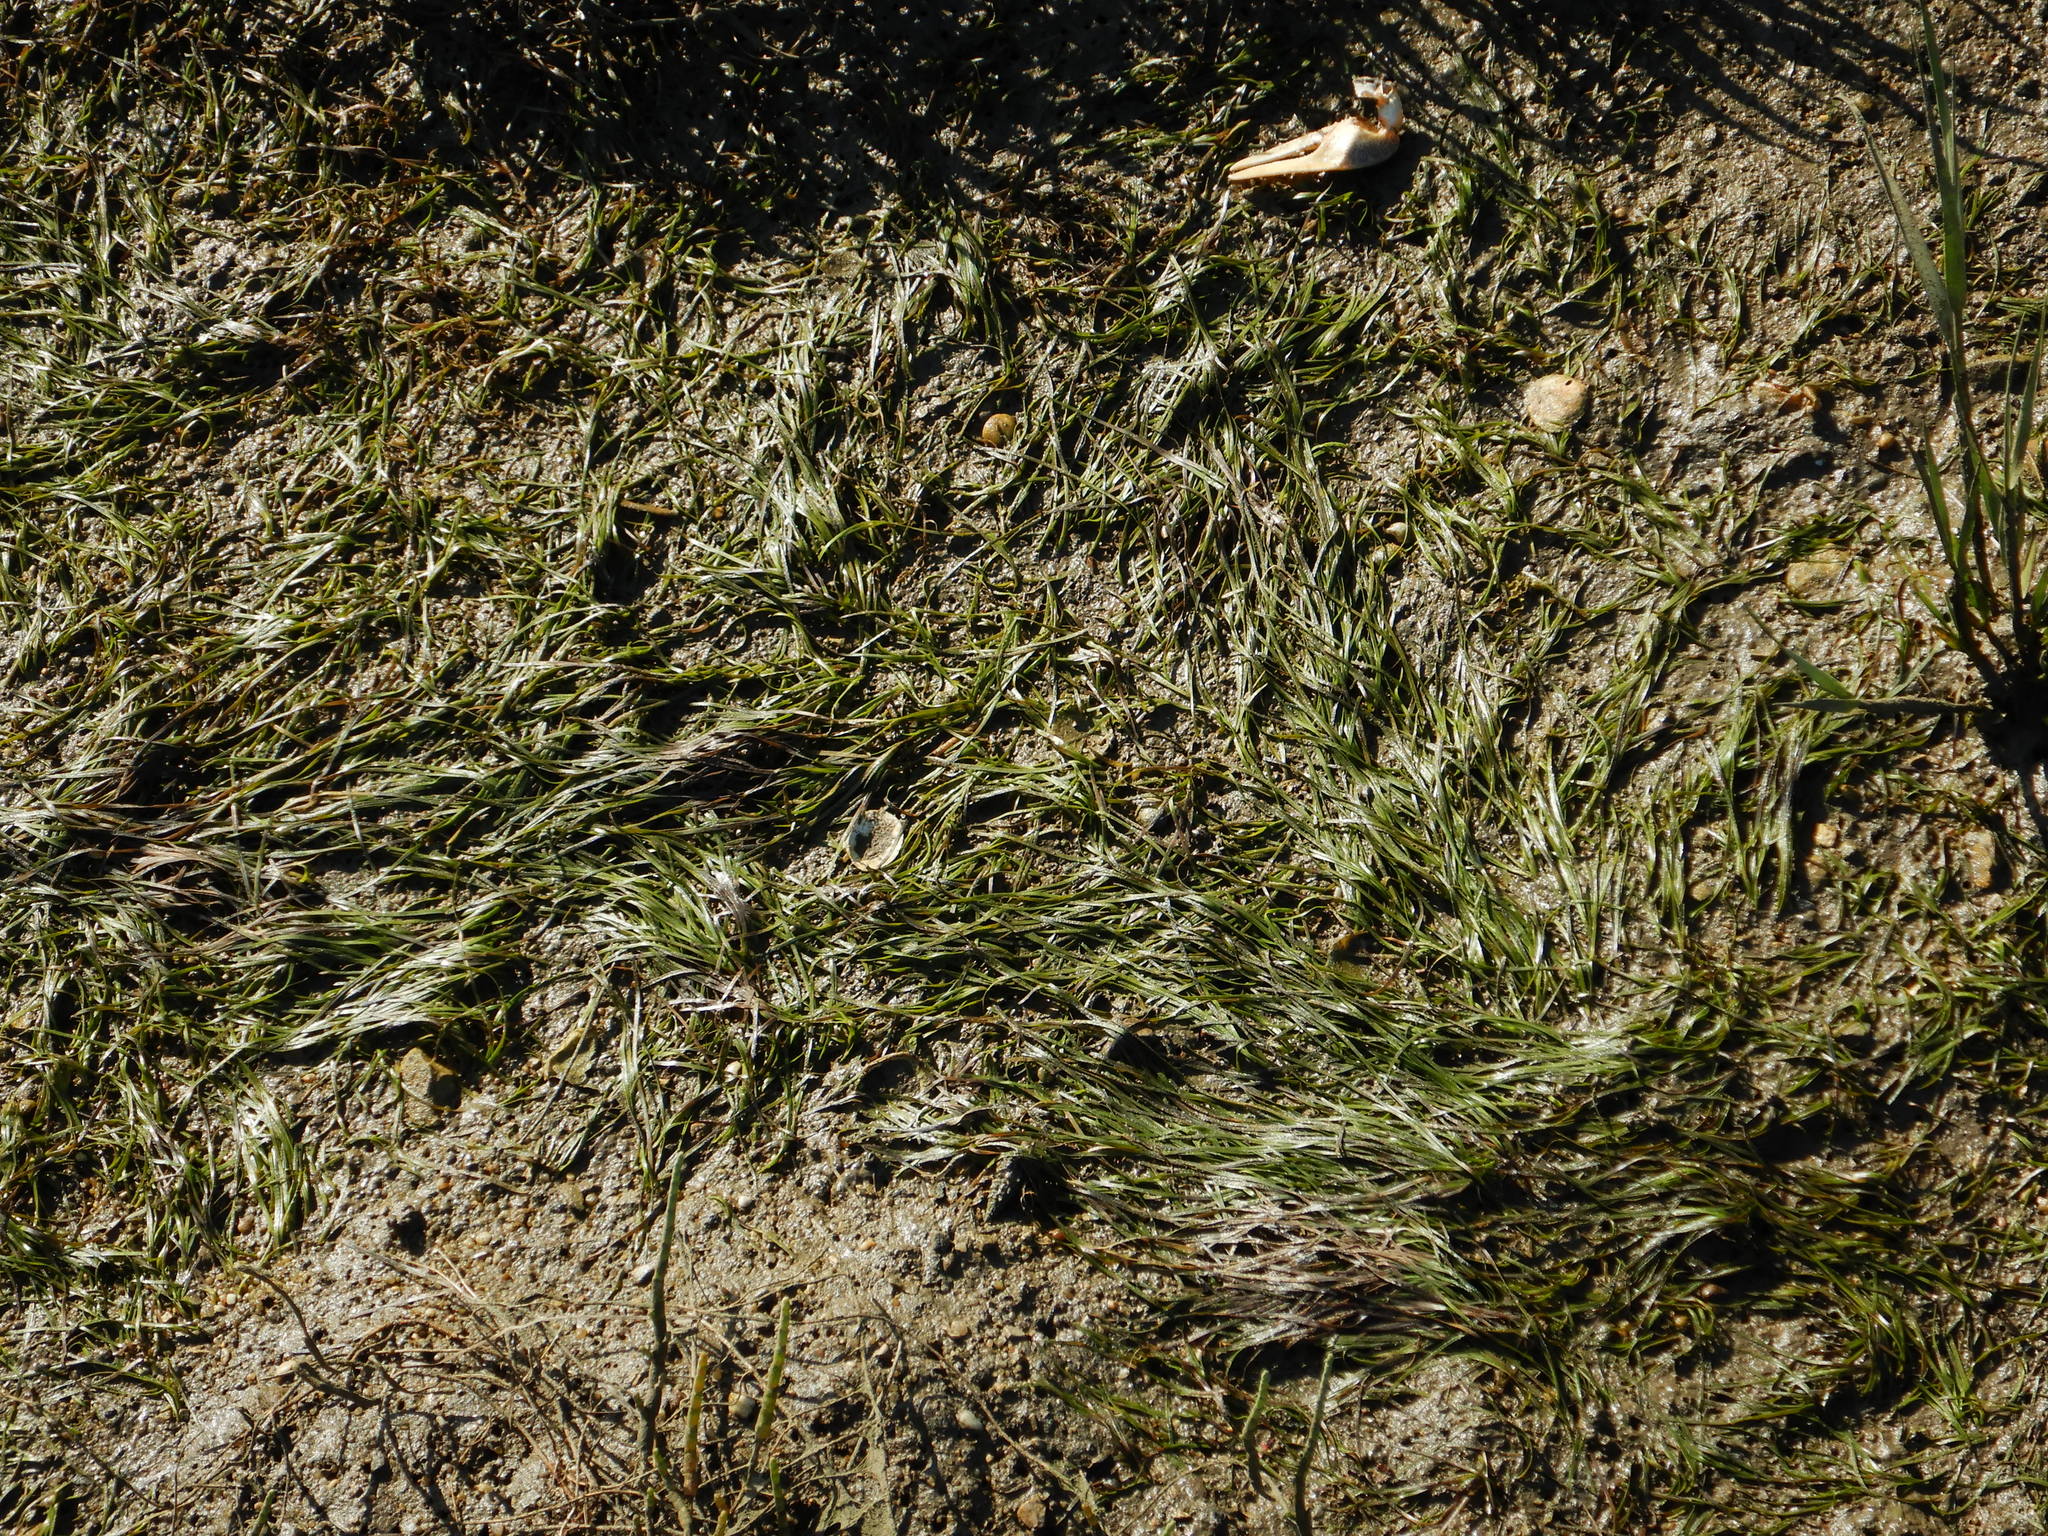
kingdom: Plantae
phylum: Tracheophyta
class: Liliopsida
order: Alismatales
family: Zosteraceae
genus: Zostera
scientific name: Zostera noltii
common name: Dwarf eelgrass
